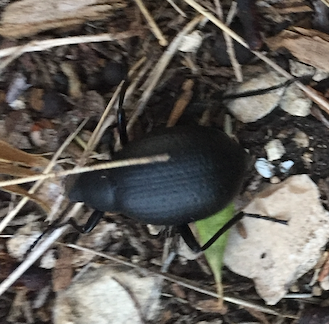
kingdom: Animalia
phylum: Arthropoda
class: Insecta
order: Coleoptera
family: Tenebrionidae
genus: Eleodes
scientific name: Eleodes goryi
